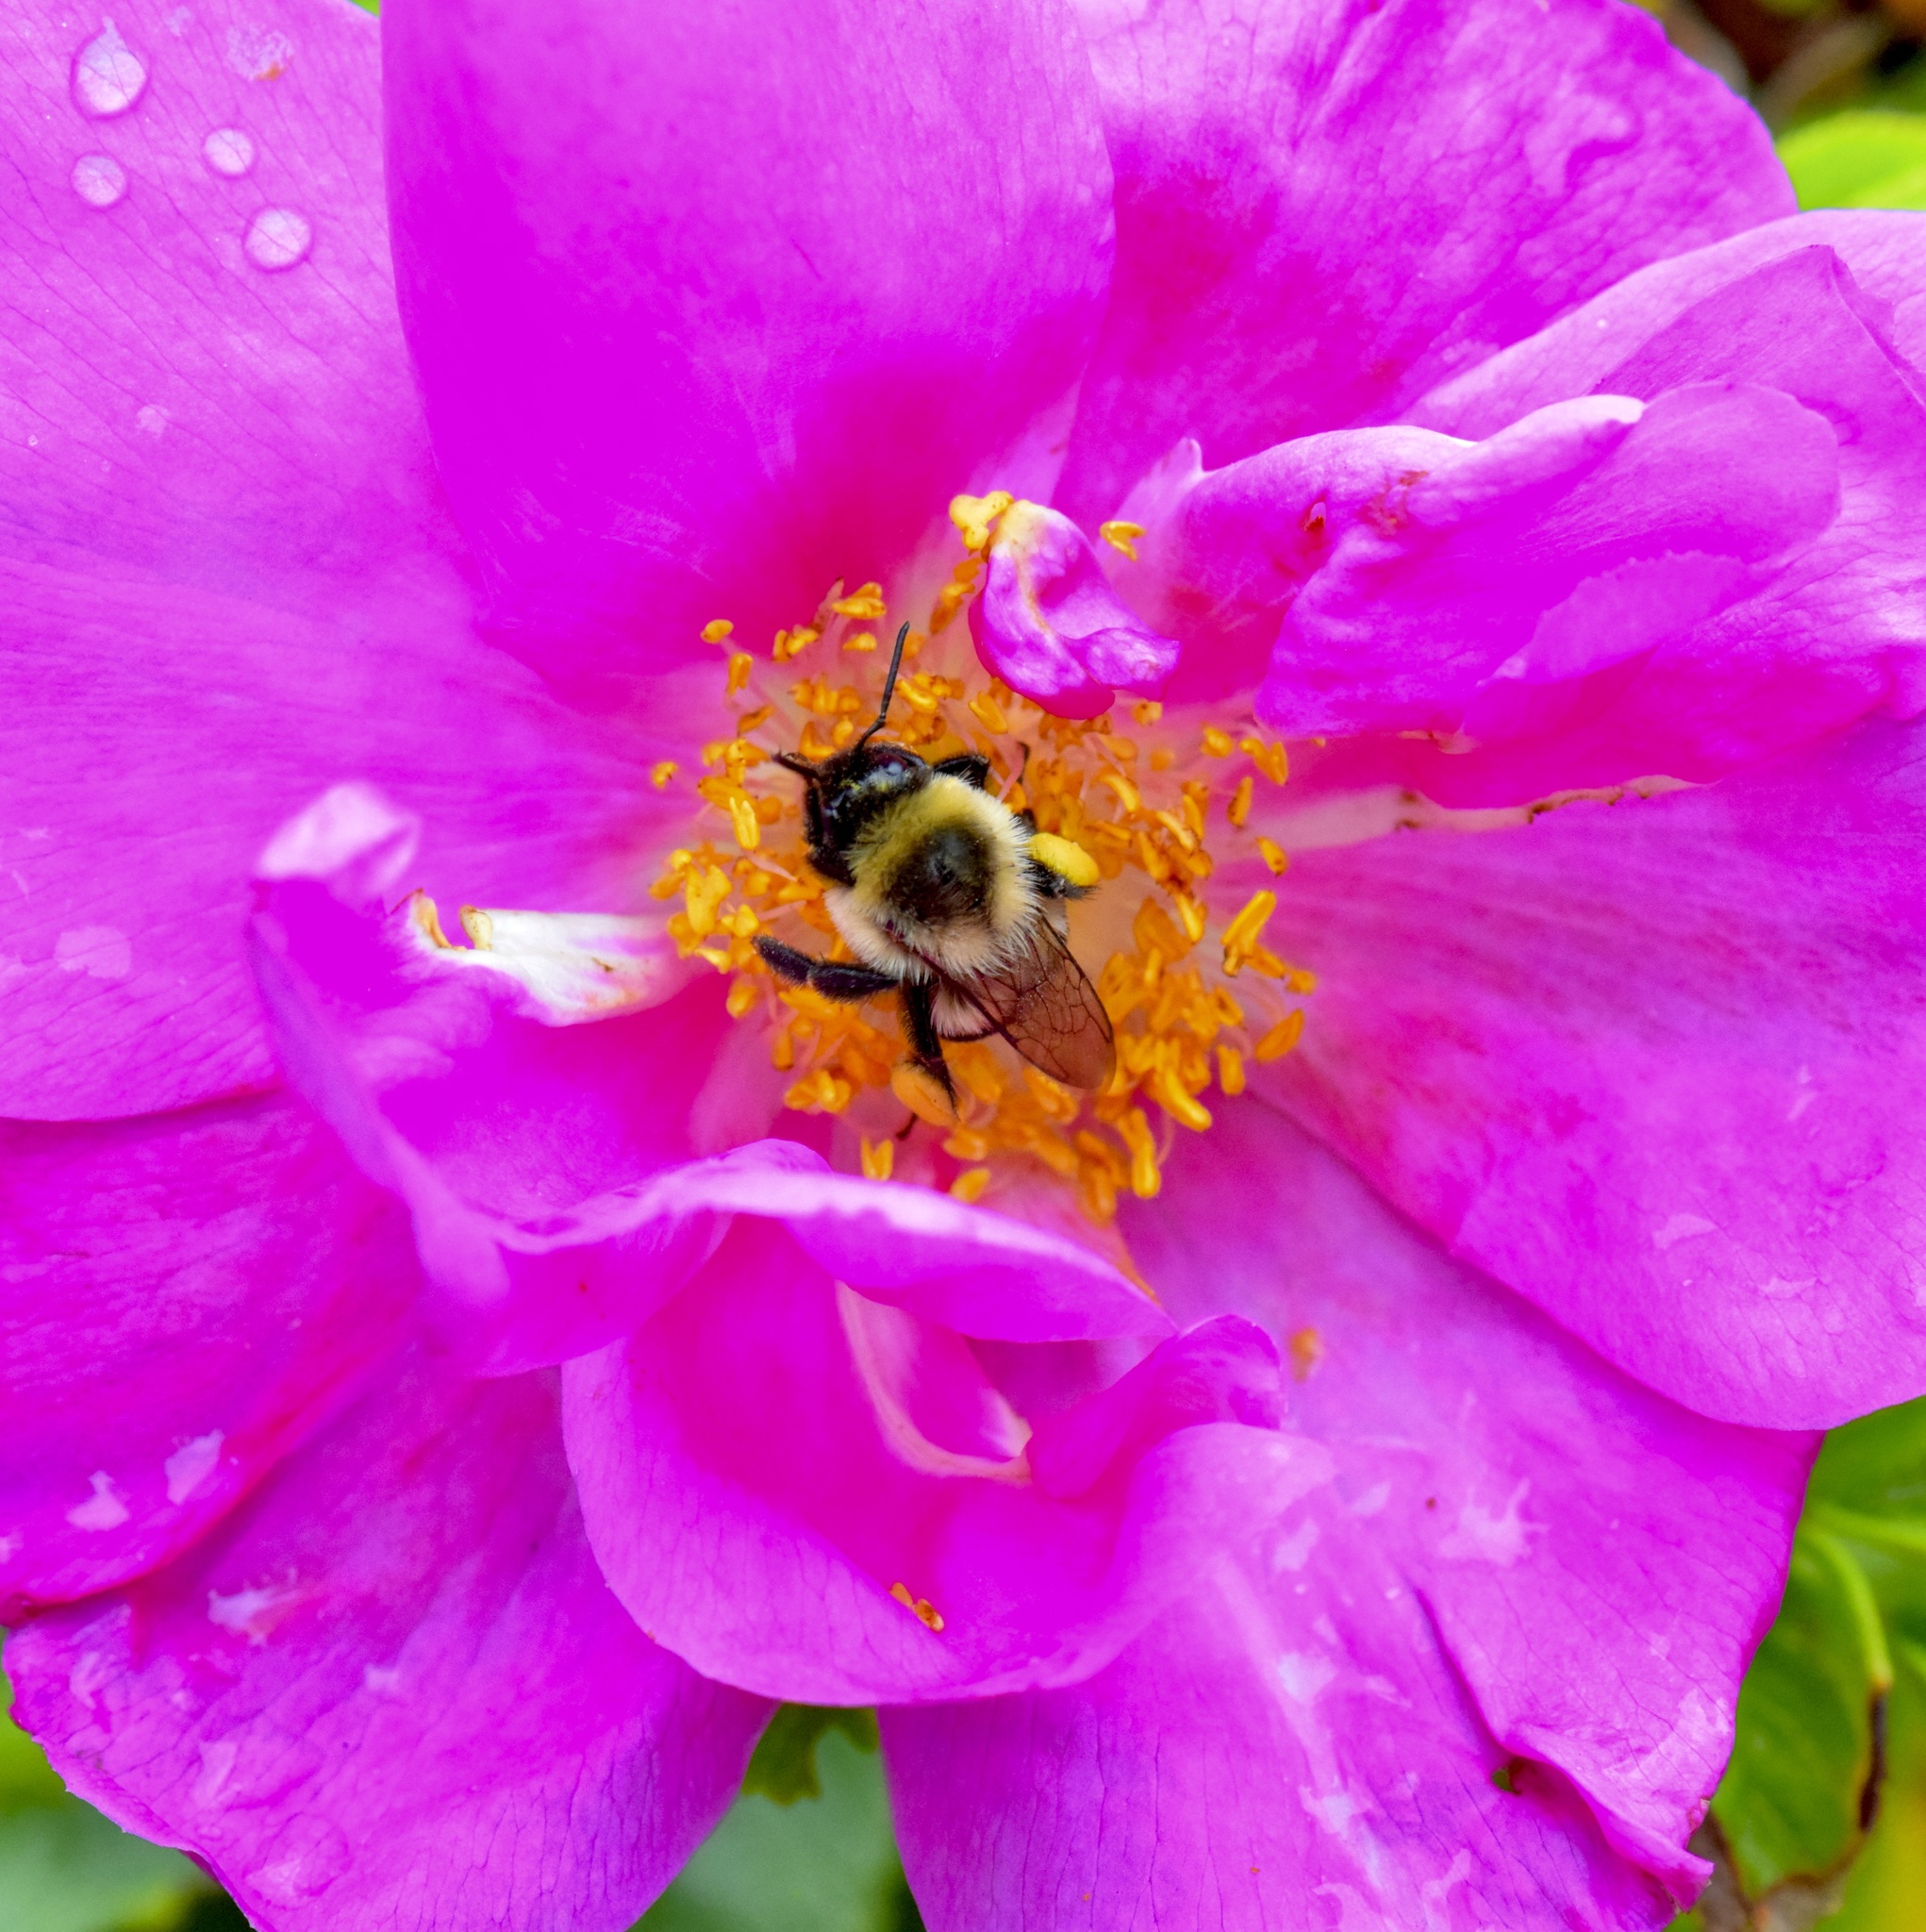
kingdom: Animalia
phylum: Arthropoda
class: Insecta
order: Hymenoptera
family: Apidae
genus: Bombus
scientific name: Bombus impatiens
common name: Common eastern bumble bee
